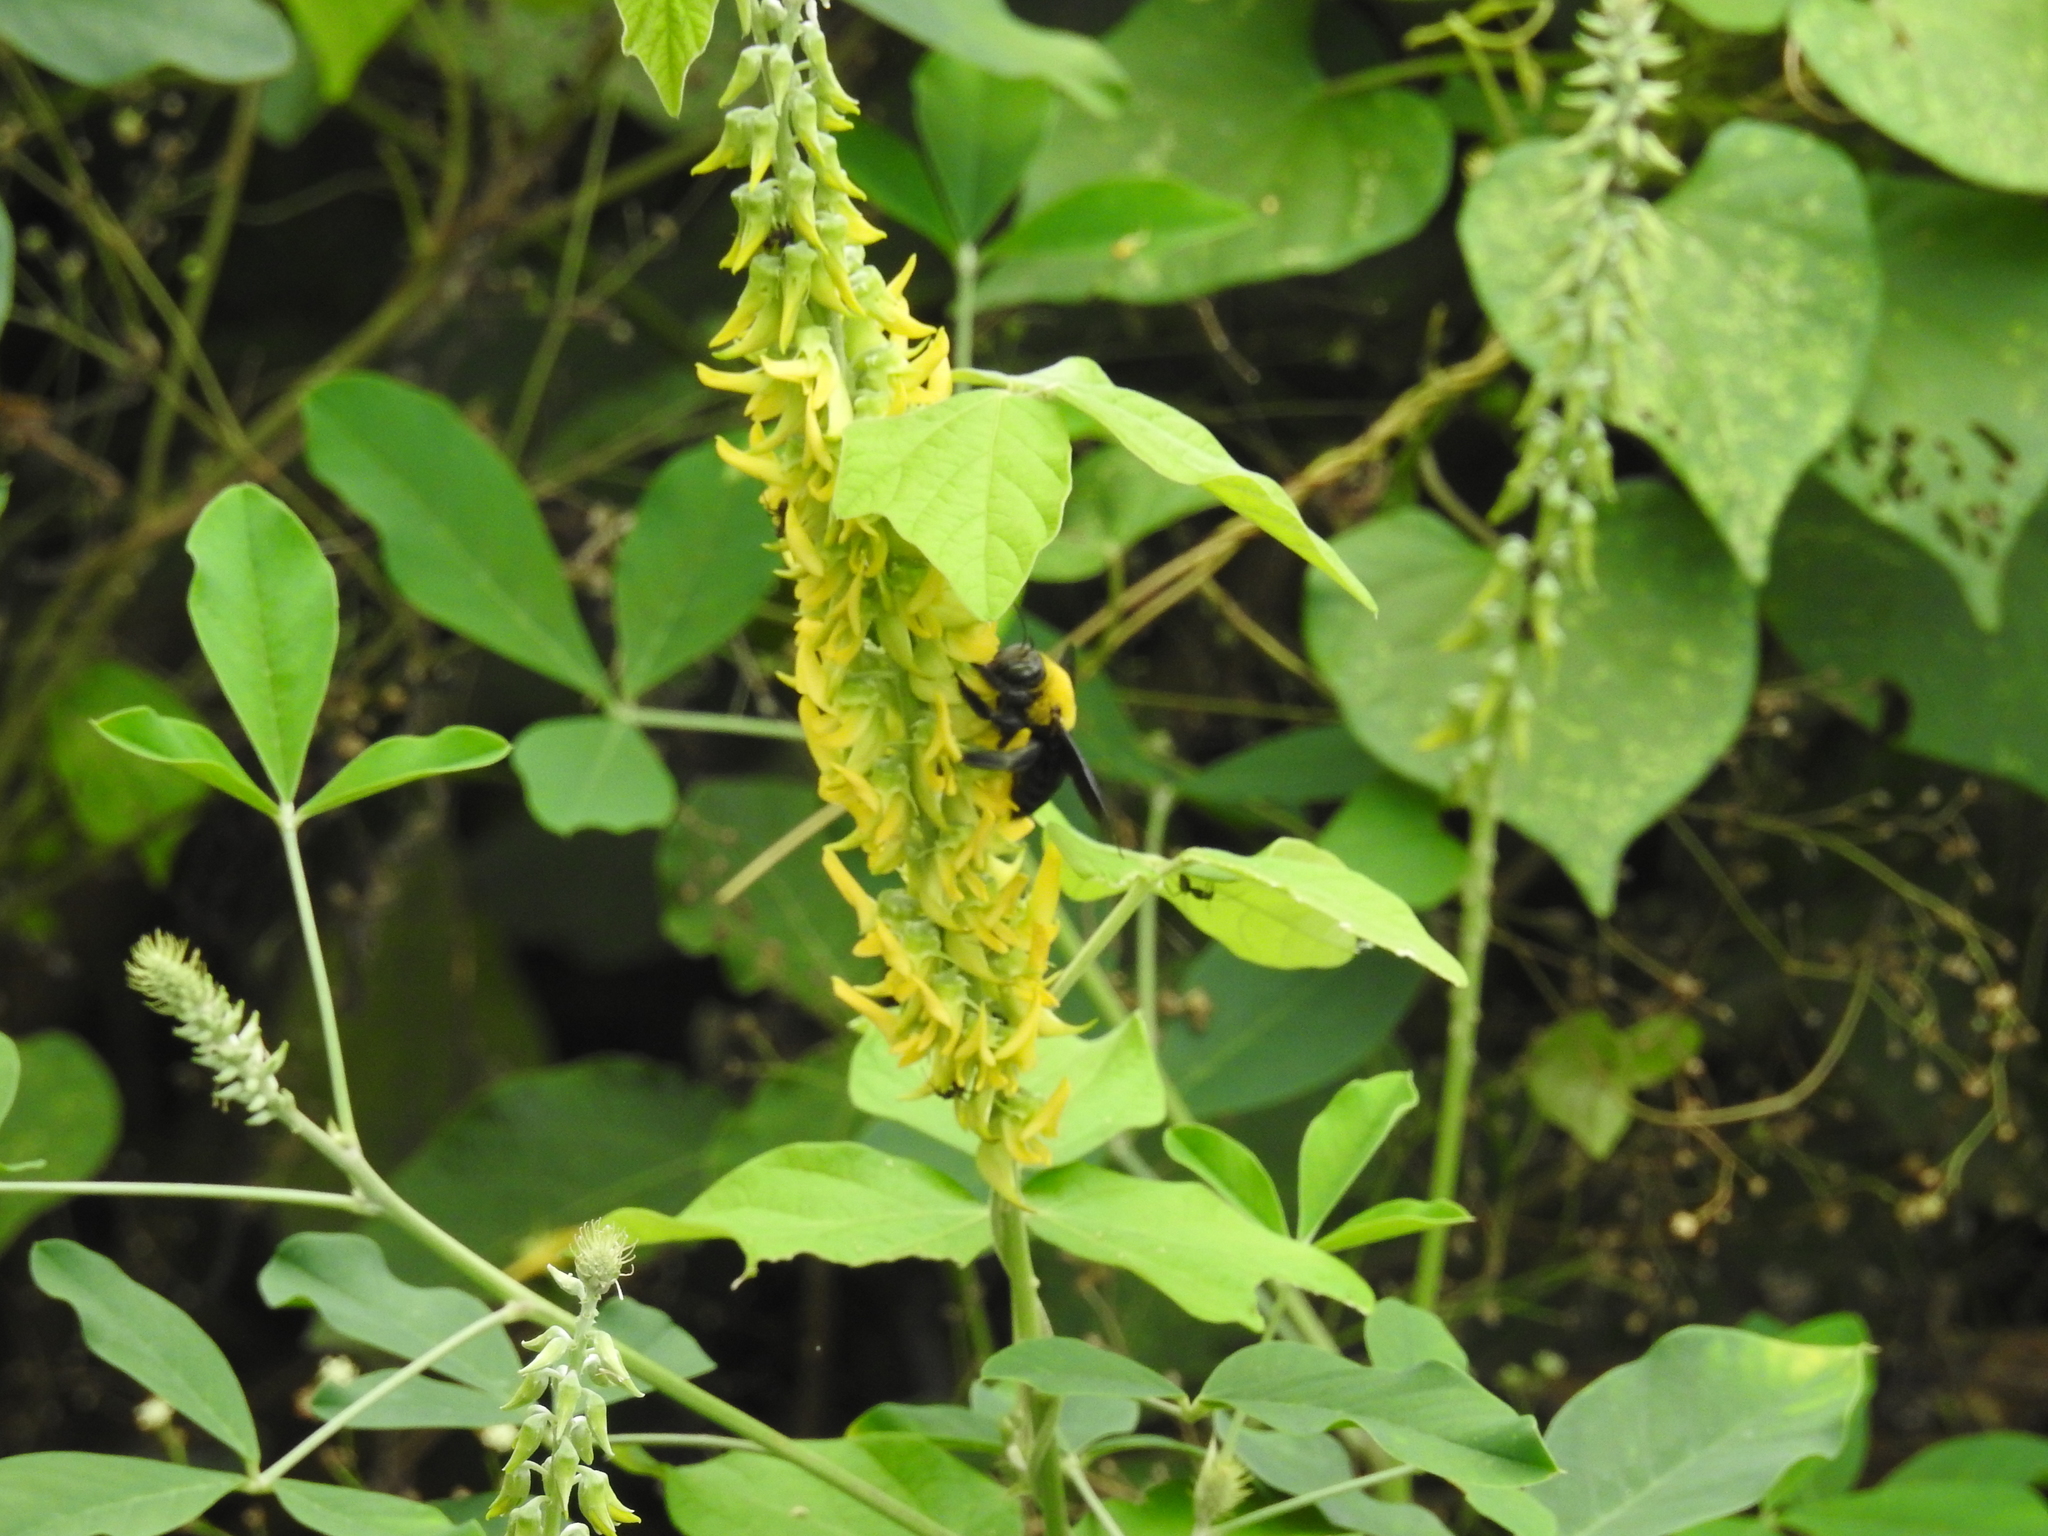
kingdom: Animalia
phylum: Arthropoda
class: Insecta
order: Hymenoptera
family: Apidae
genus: Xylocopa
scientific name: Xylocopa ruficornis
